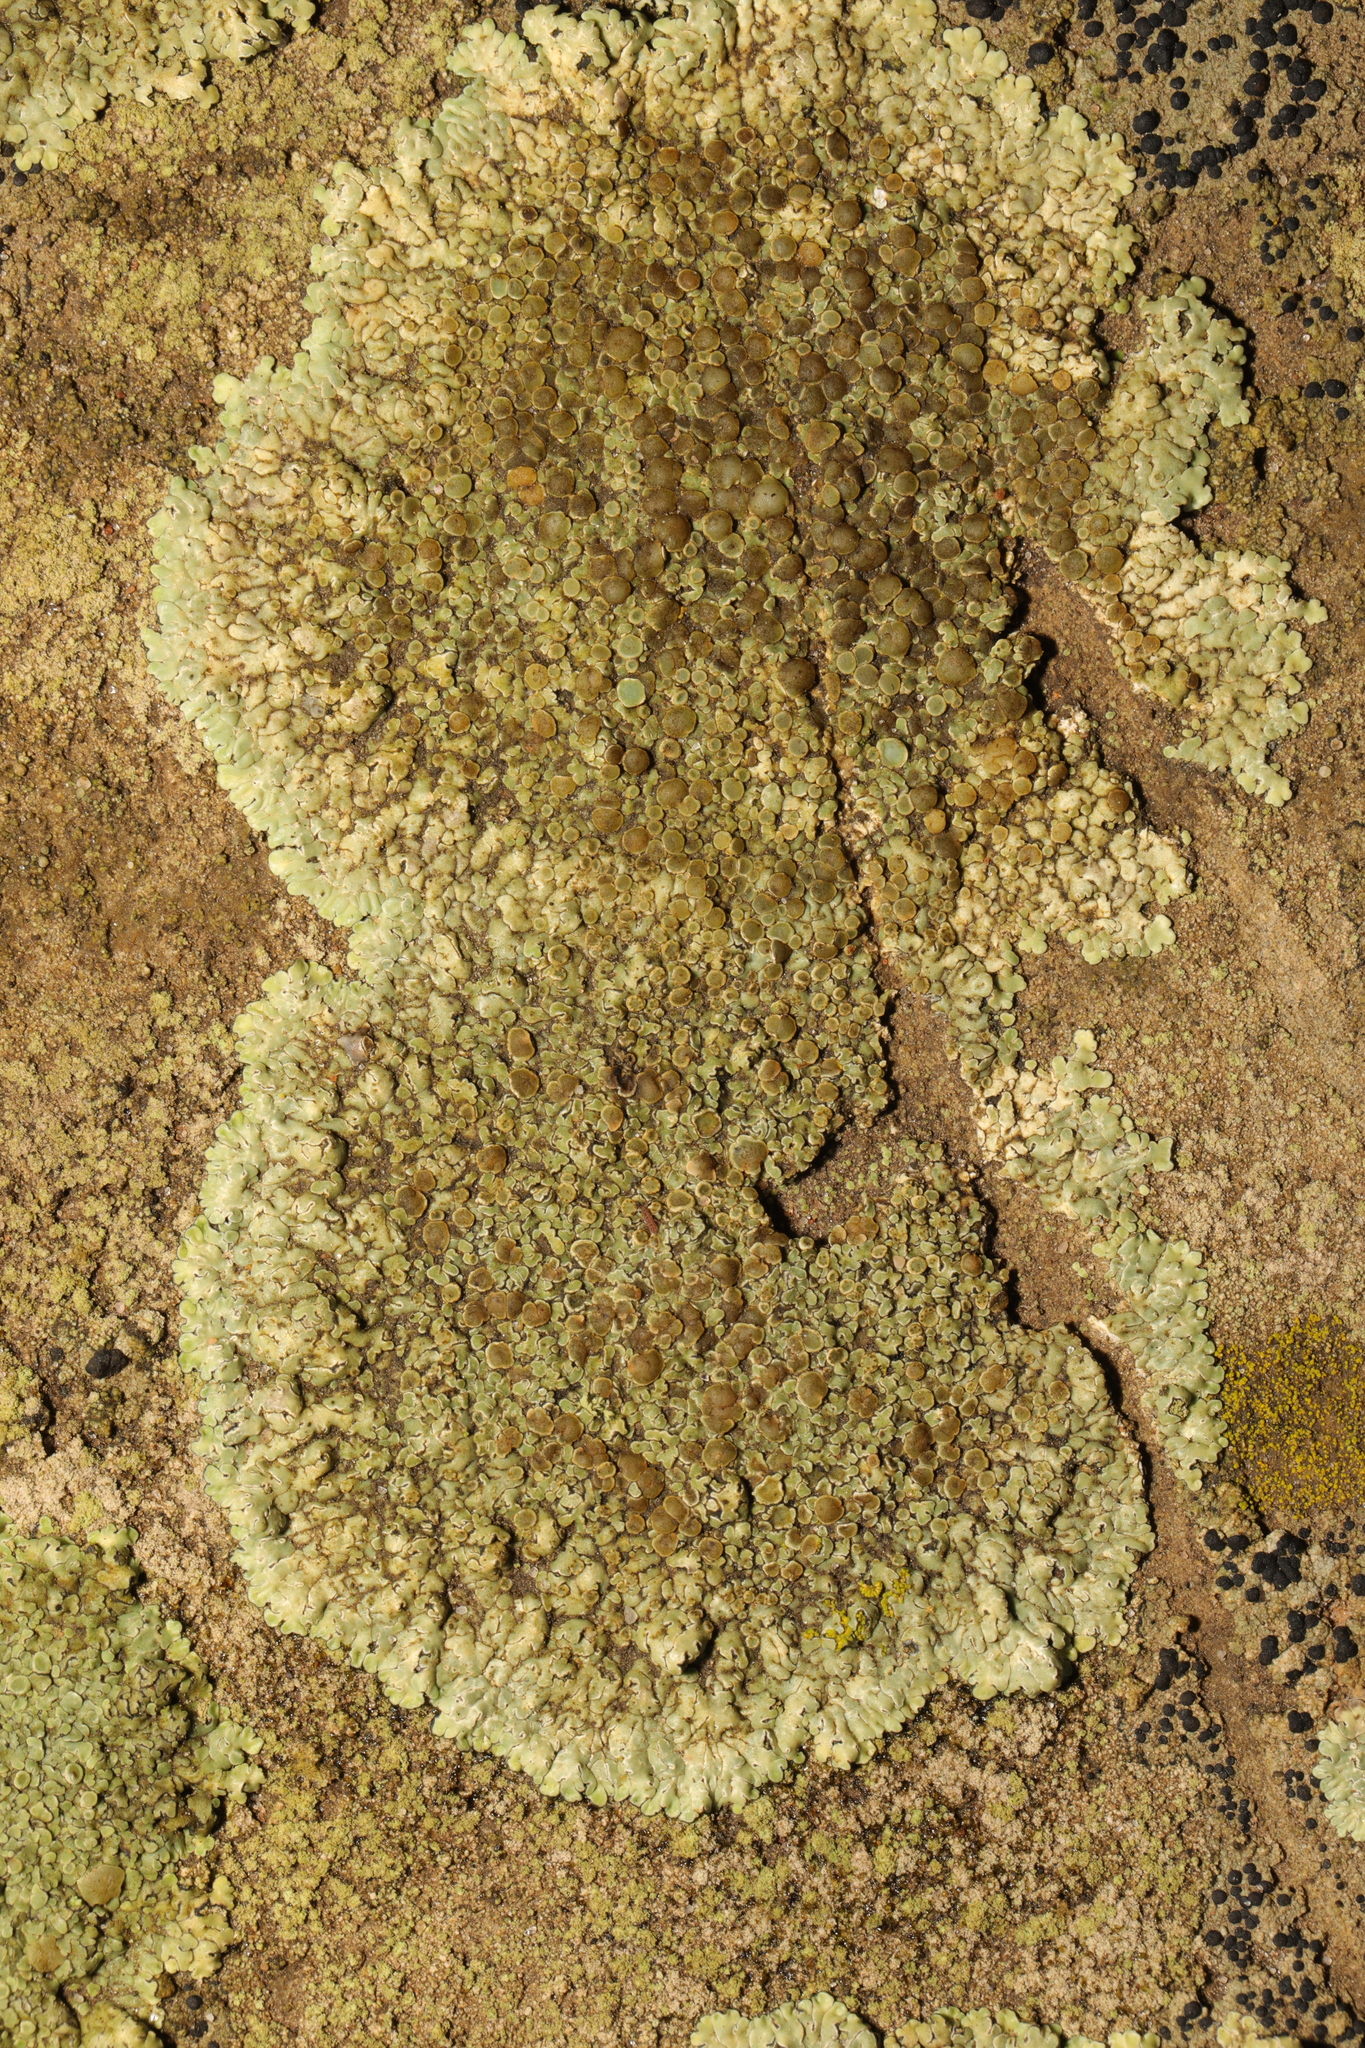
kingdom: Fungi
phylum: Ascomycota
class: Lecanoromycetes
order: Lecanorales
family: Lecanoraceae
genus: Protoparmeliopsis
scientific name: Protoparmeliopsis muralis
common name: Stonewall rim lichen
